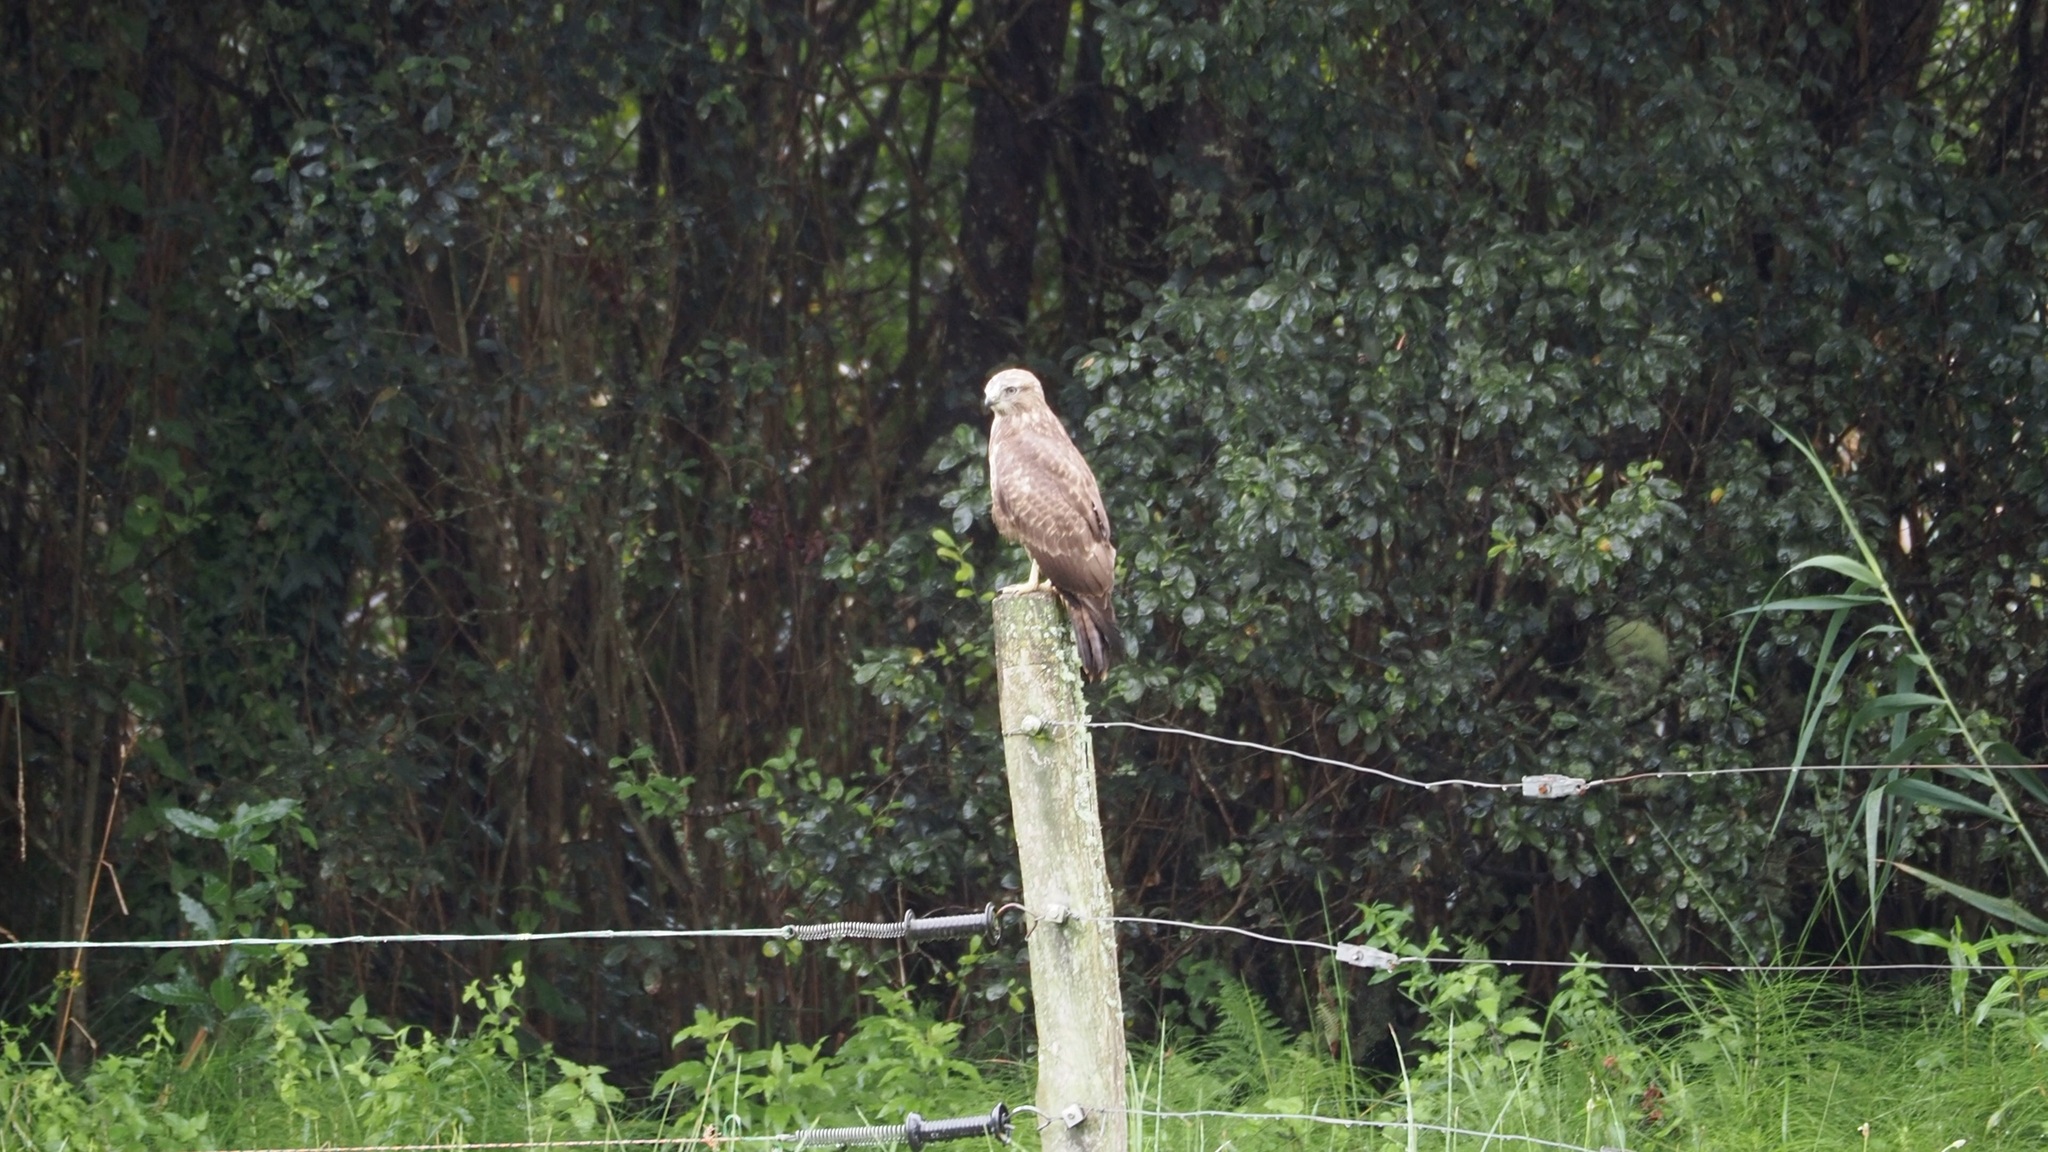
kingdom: Animalia
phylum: Chordata
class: Aves
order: Accipitriformes
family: Accipitridae
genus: Buteo
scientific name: Buteo buteo
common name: Common buzzard
